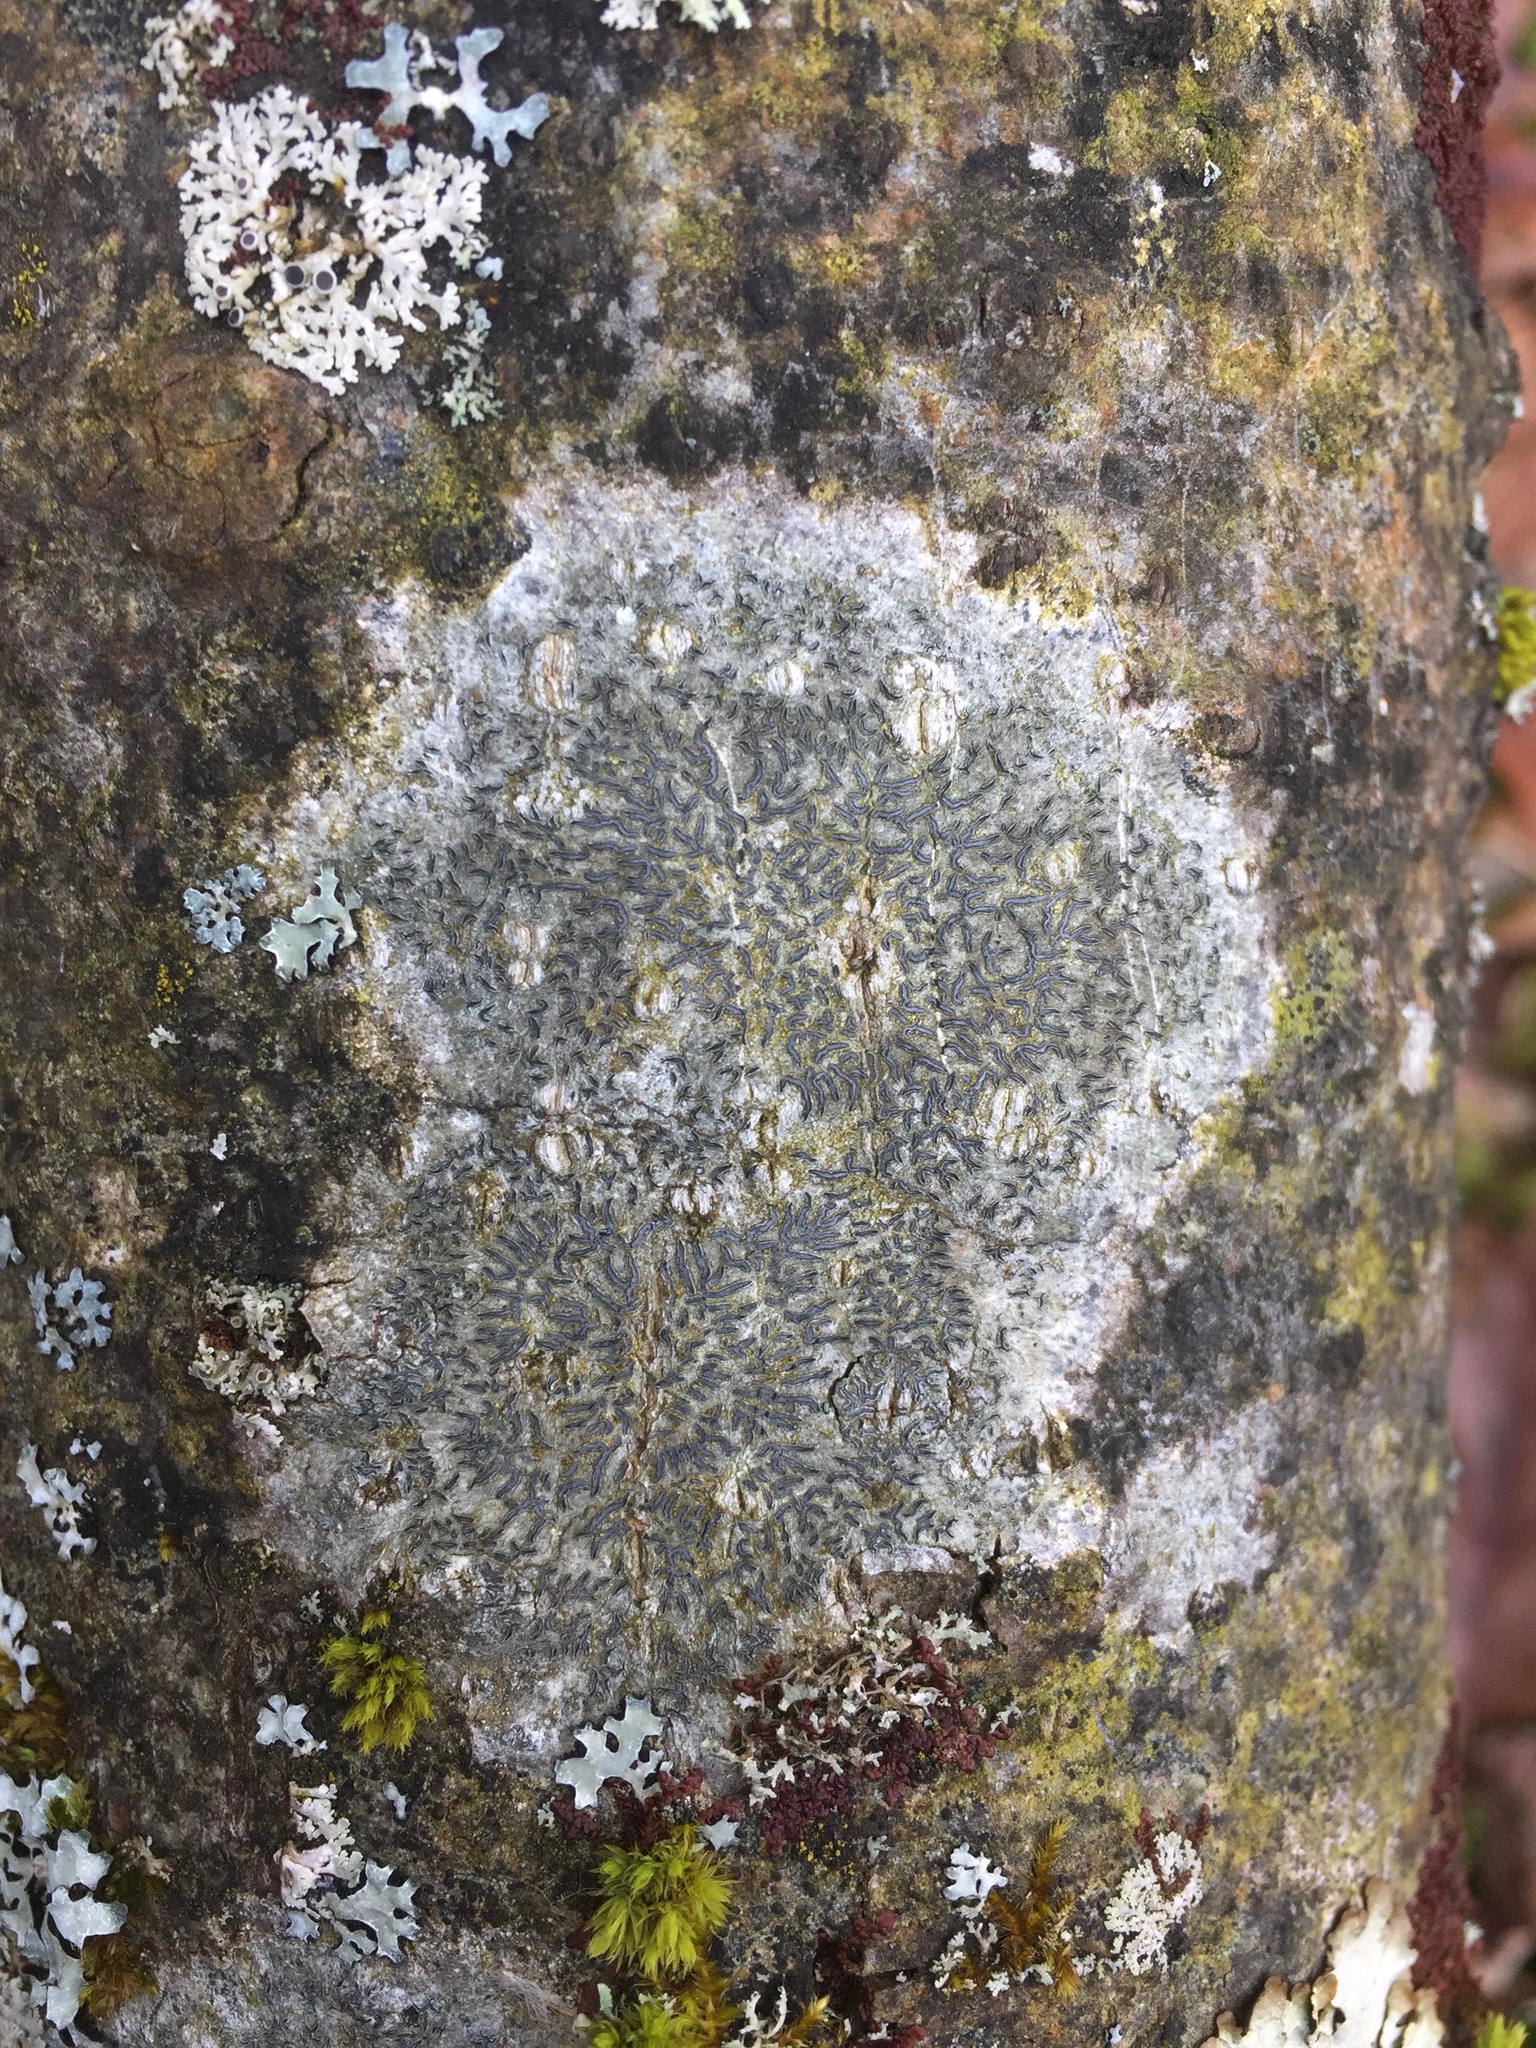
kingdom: Fungi
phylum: Ascomycota
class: Lecanoromycetes
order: Ostropales
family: Graphidaceae
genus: Graphis
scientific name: Graphis scripta
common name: Script lichen
